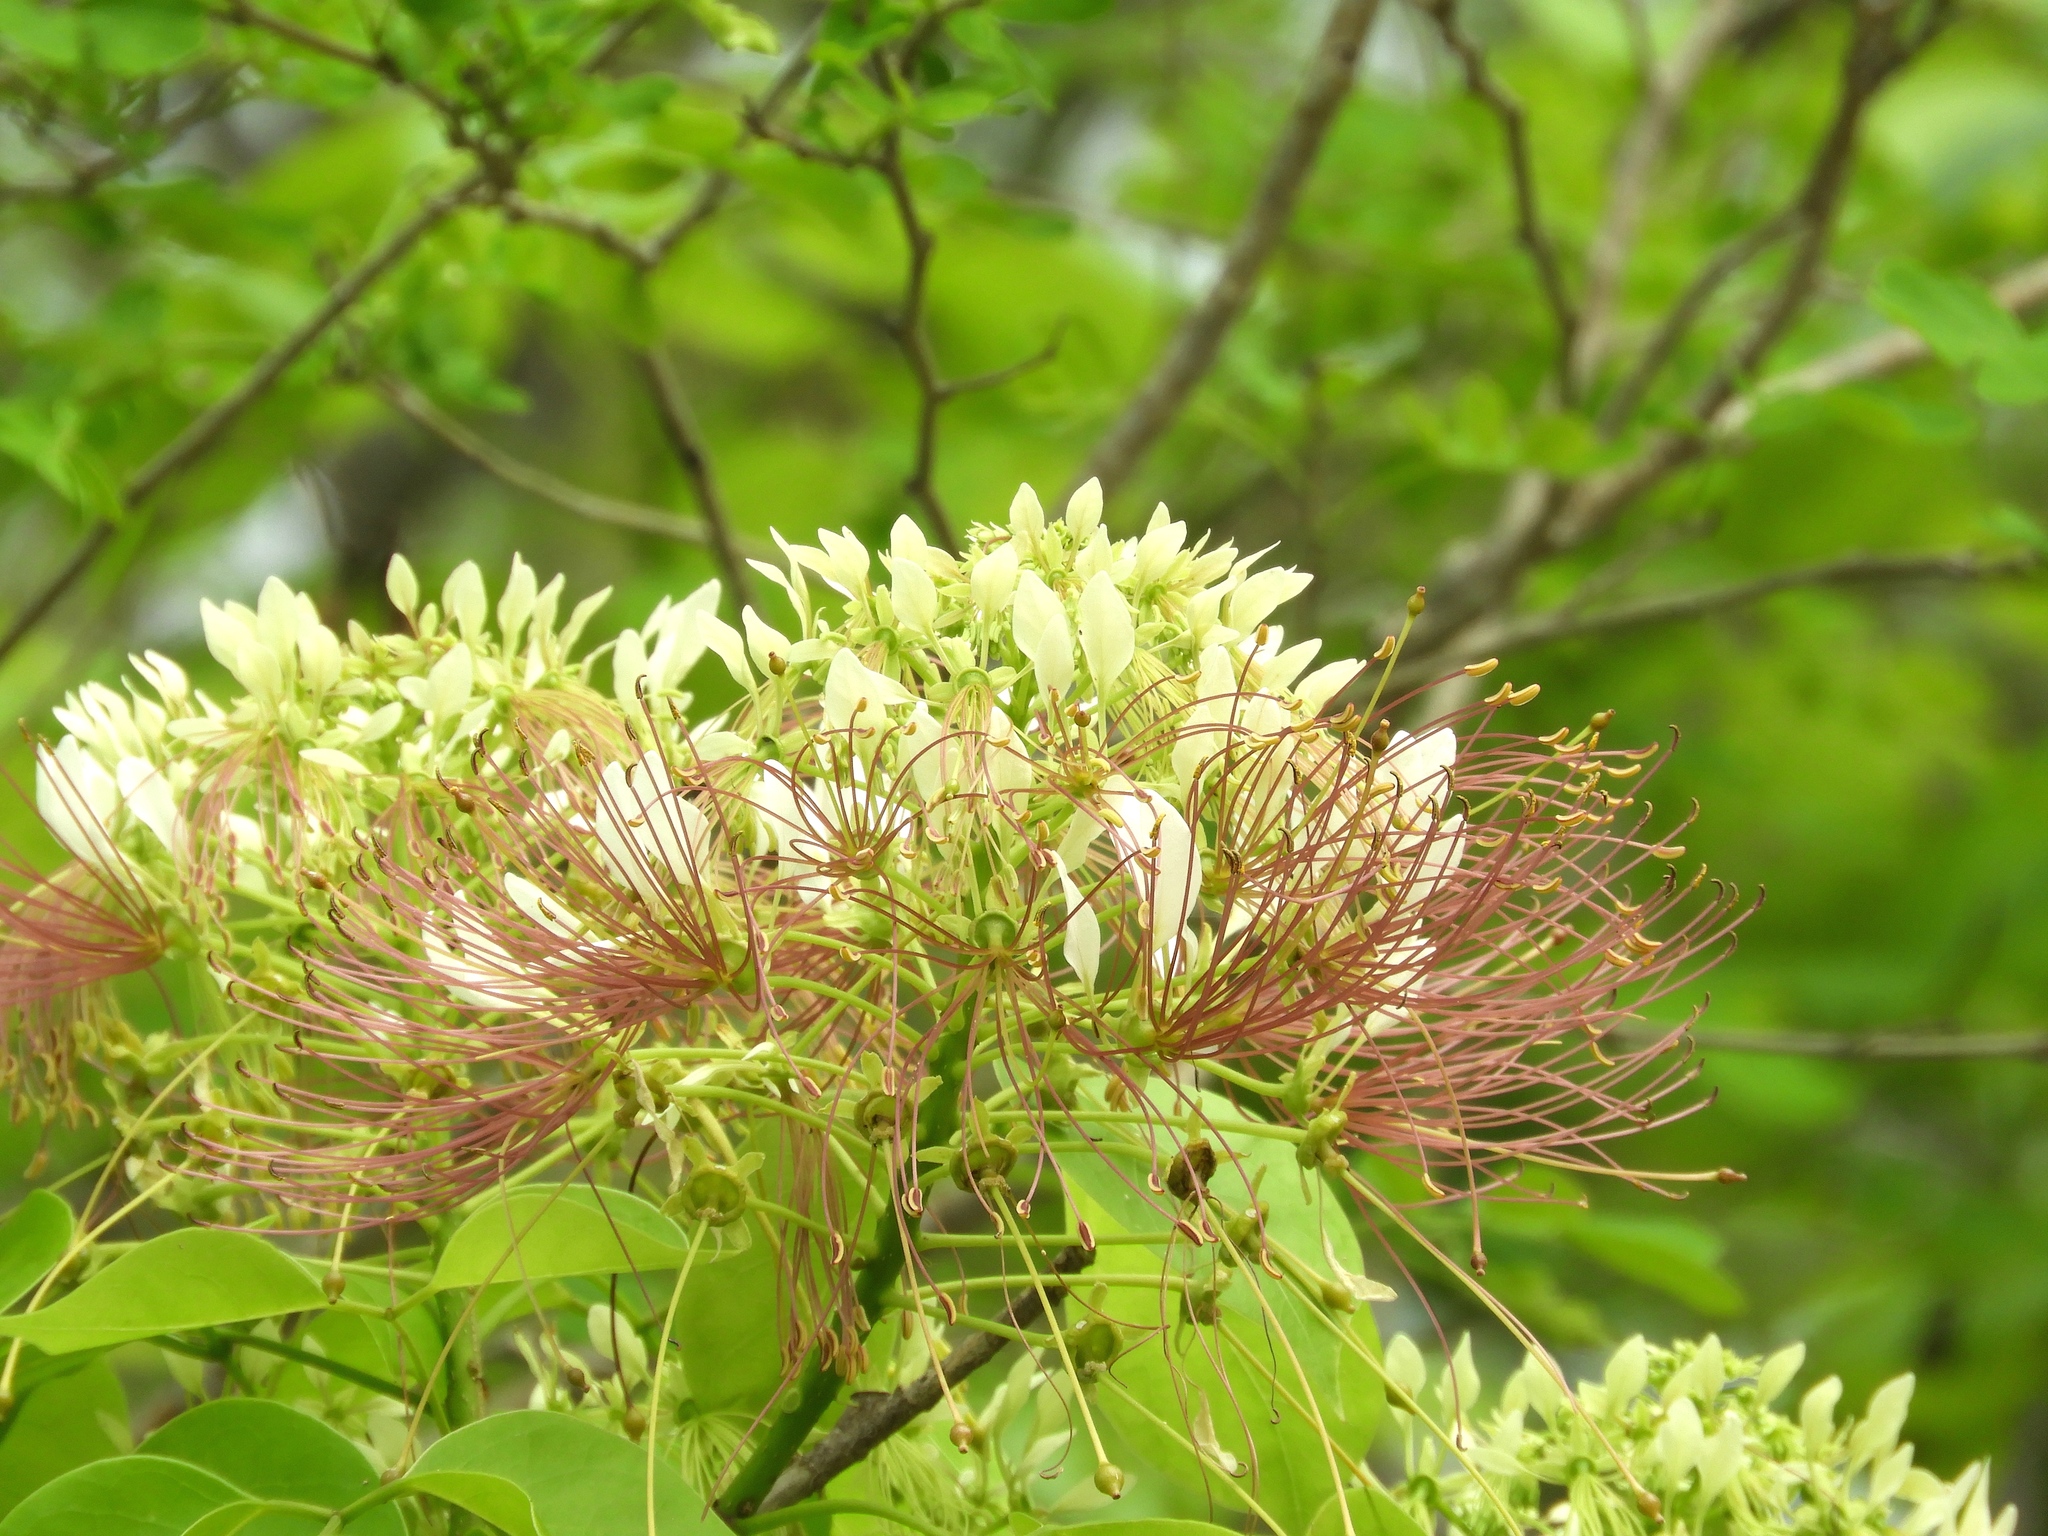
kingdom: Plantae
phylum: Tracheophyta
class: Magnoliopsida
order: Brassicales
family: Capparaceae
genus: Crateva
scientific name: Crateva tapia
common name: Garlic-pear
